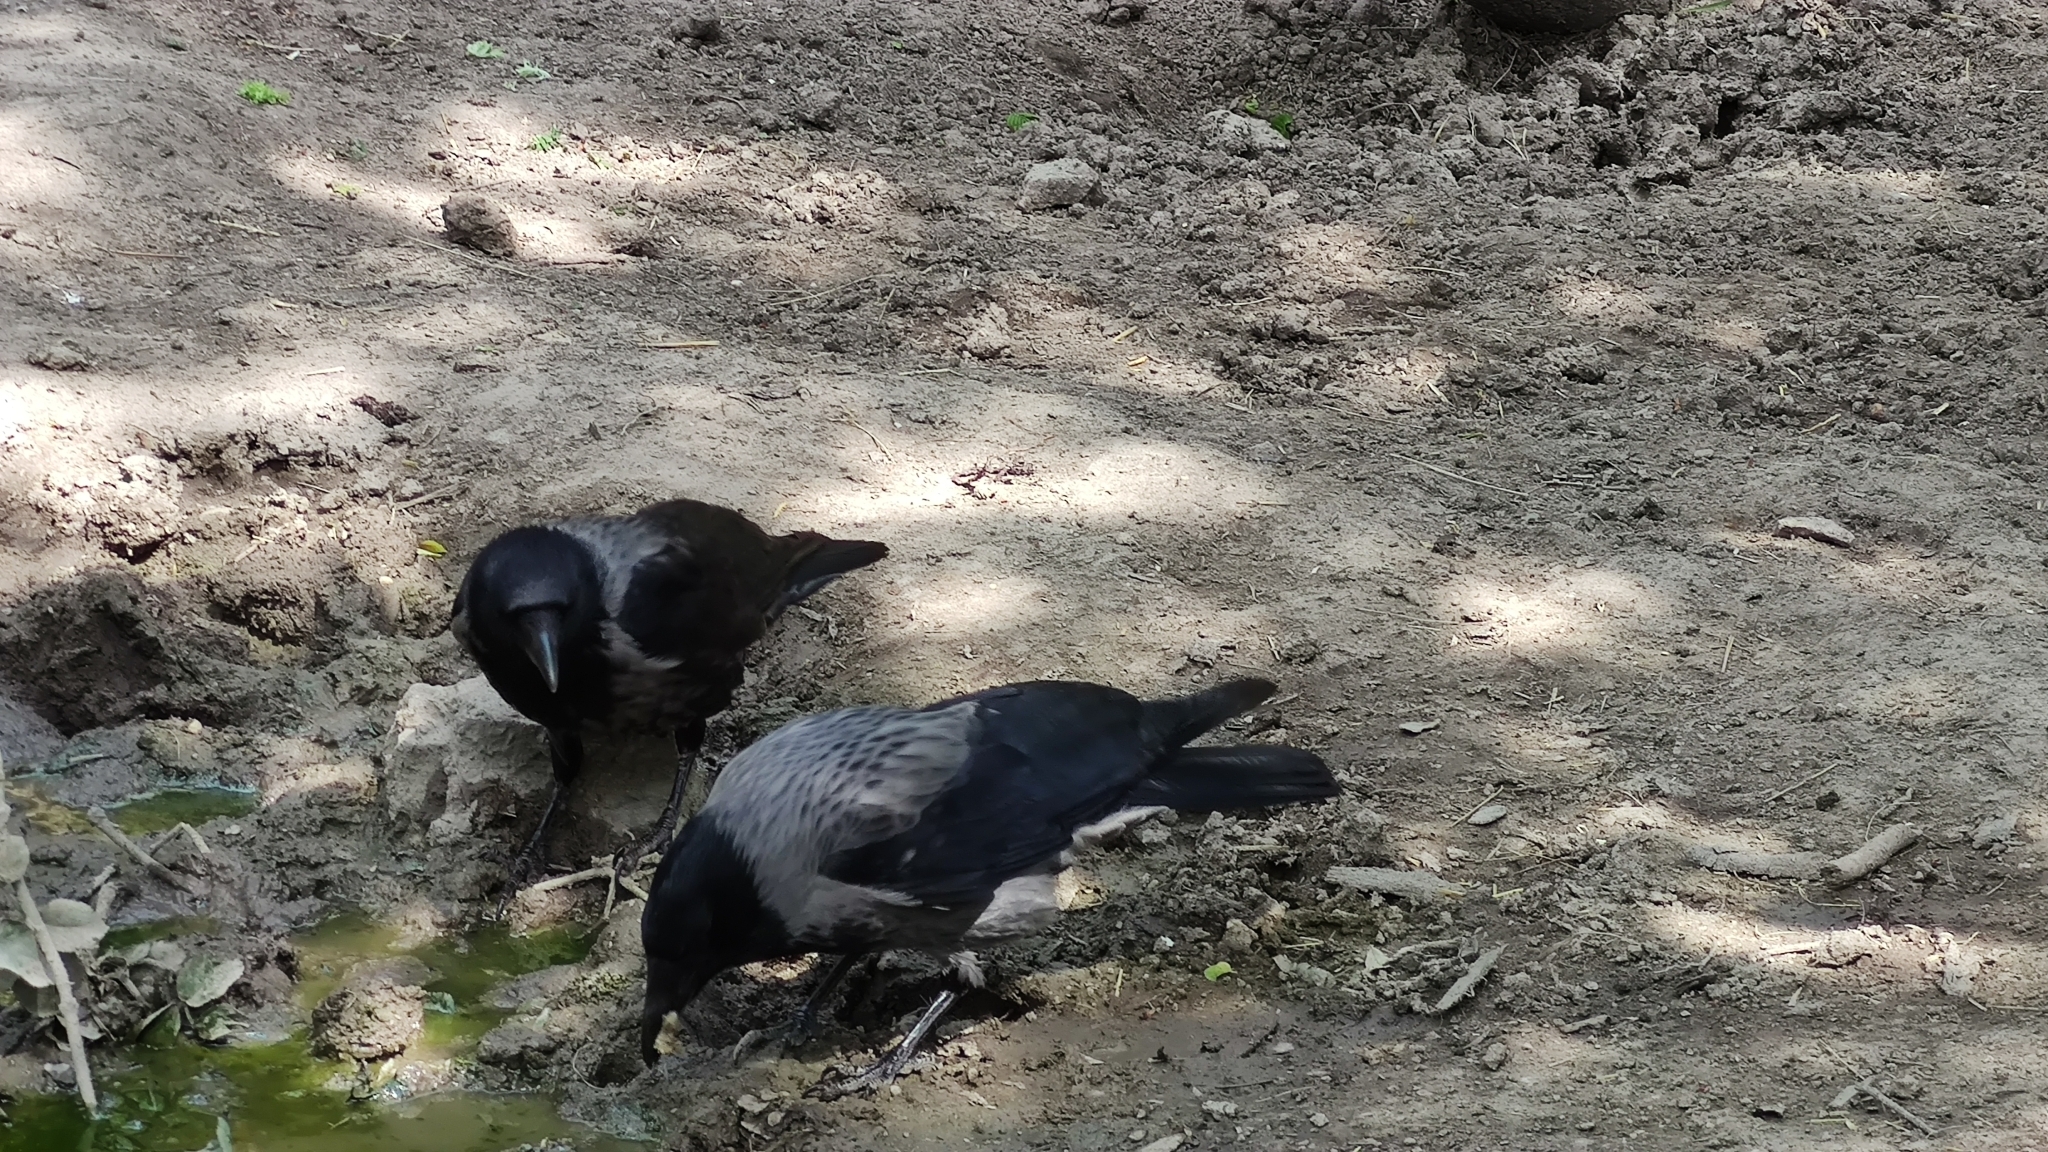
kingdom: Animalia
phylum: Chordata
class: Aves
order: Passeriformes
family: Corvidae
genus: Corvus
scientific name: Corvus
